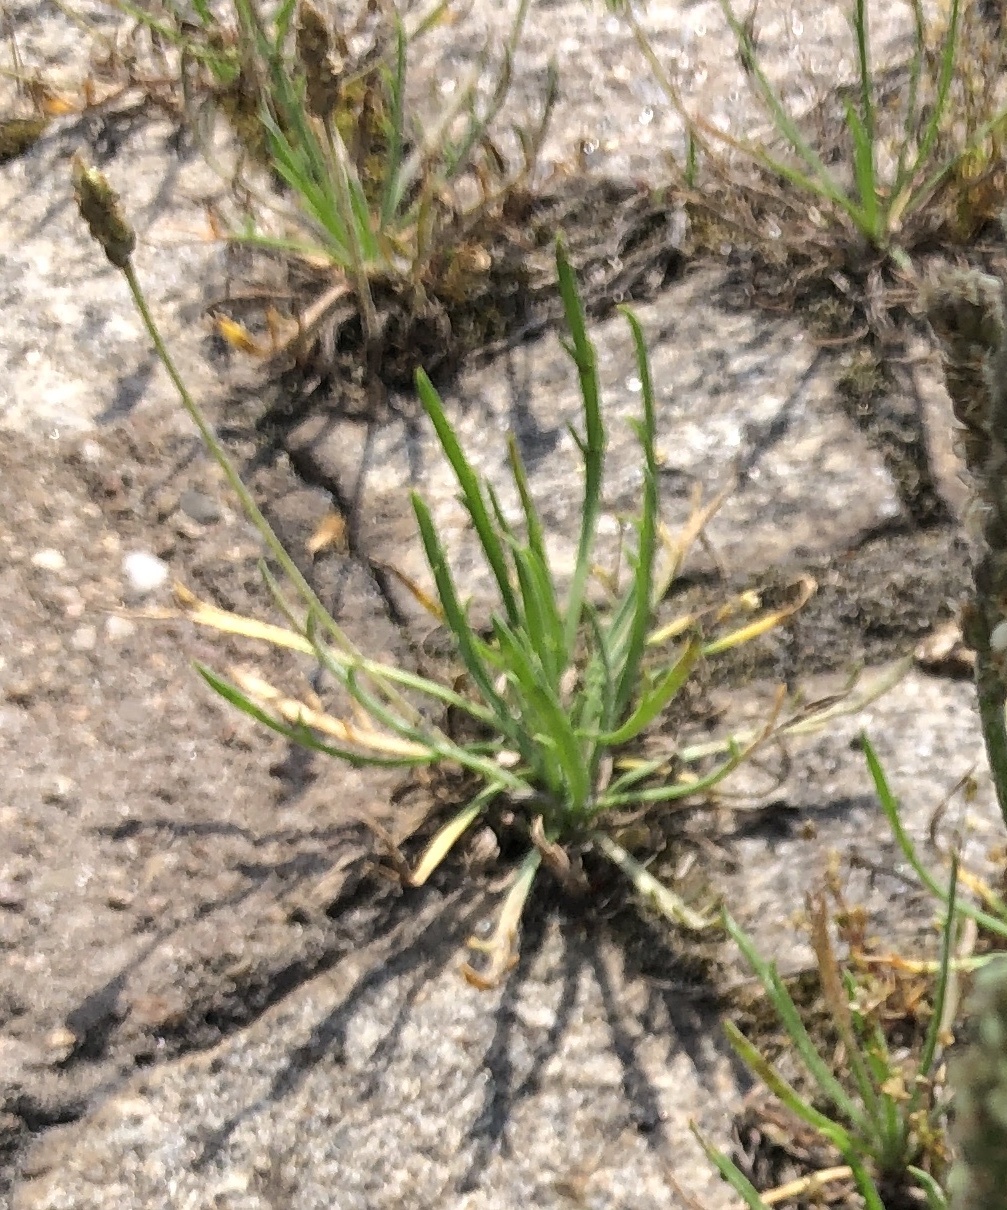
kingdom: Plantae
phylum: Tracheophyta
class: Magnoliopsida
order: Lamiales
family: Plantaginaceae
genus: Plantago
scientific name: Plantago coronopus
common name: Buck's-horn plantain
